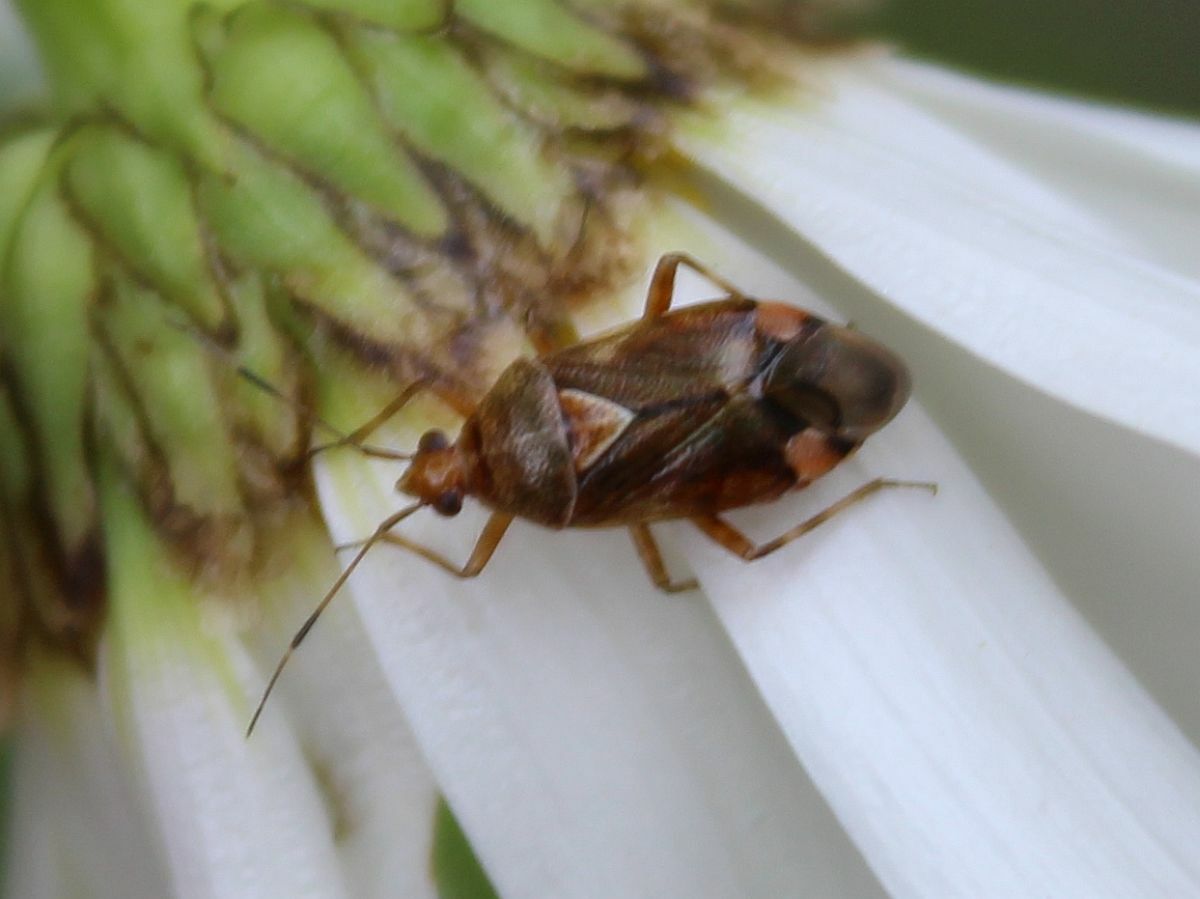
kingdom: Animalia
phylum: Arthropoda
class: Insecta
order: Hemiptera
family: Miridae
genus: Deraeocoris
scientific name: Deraeocoris flavilinea
